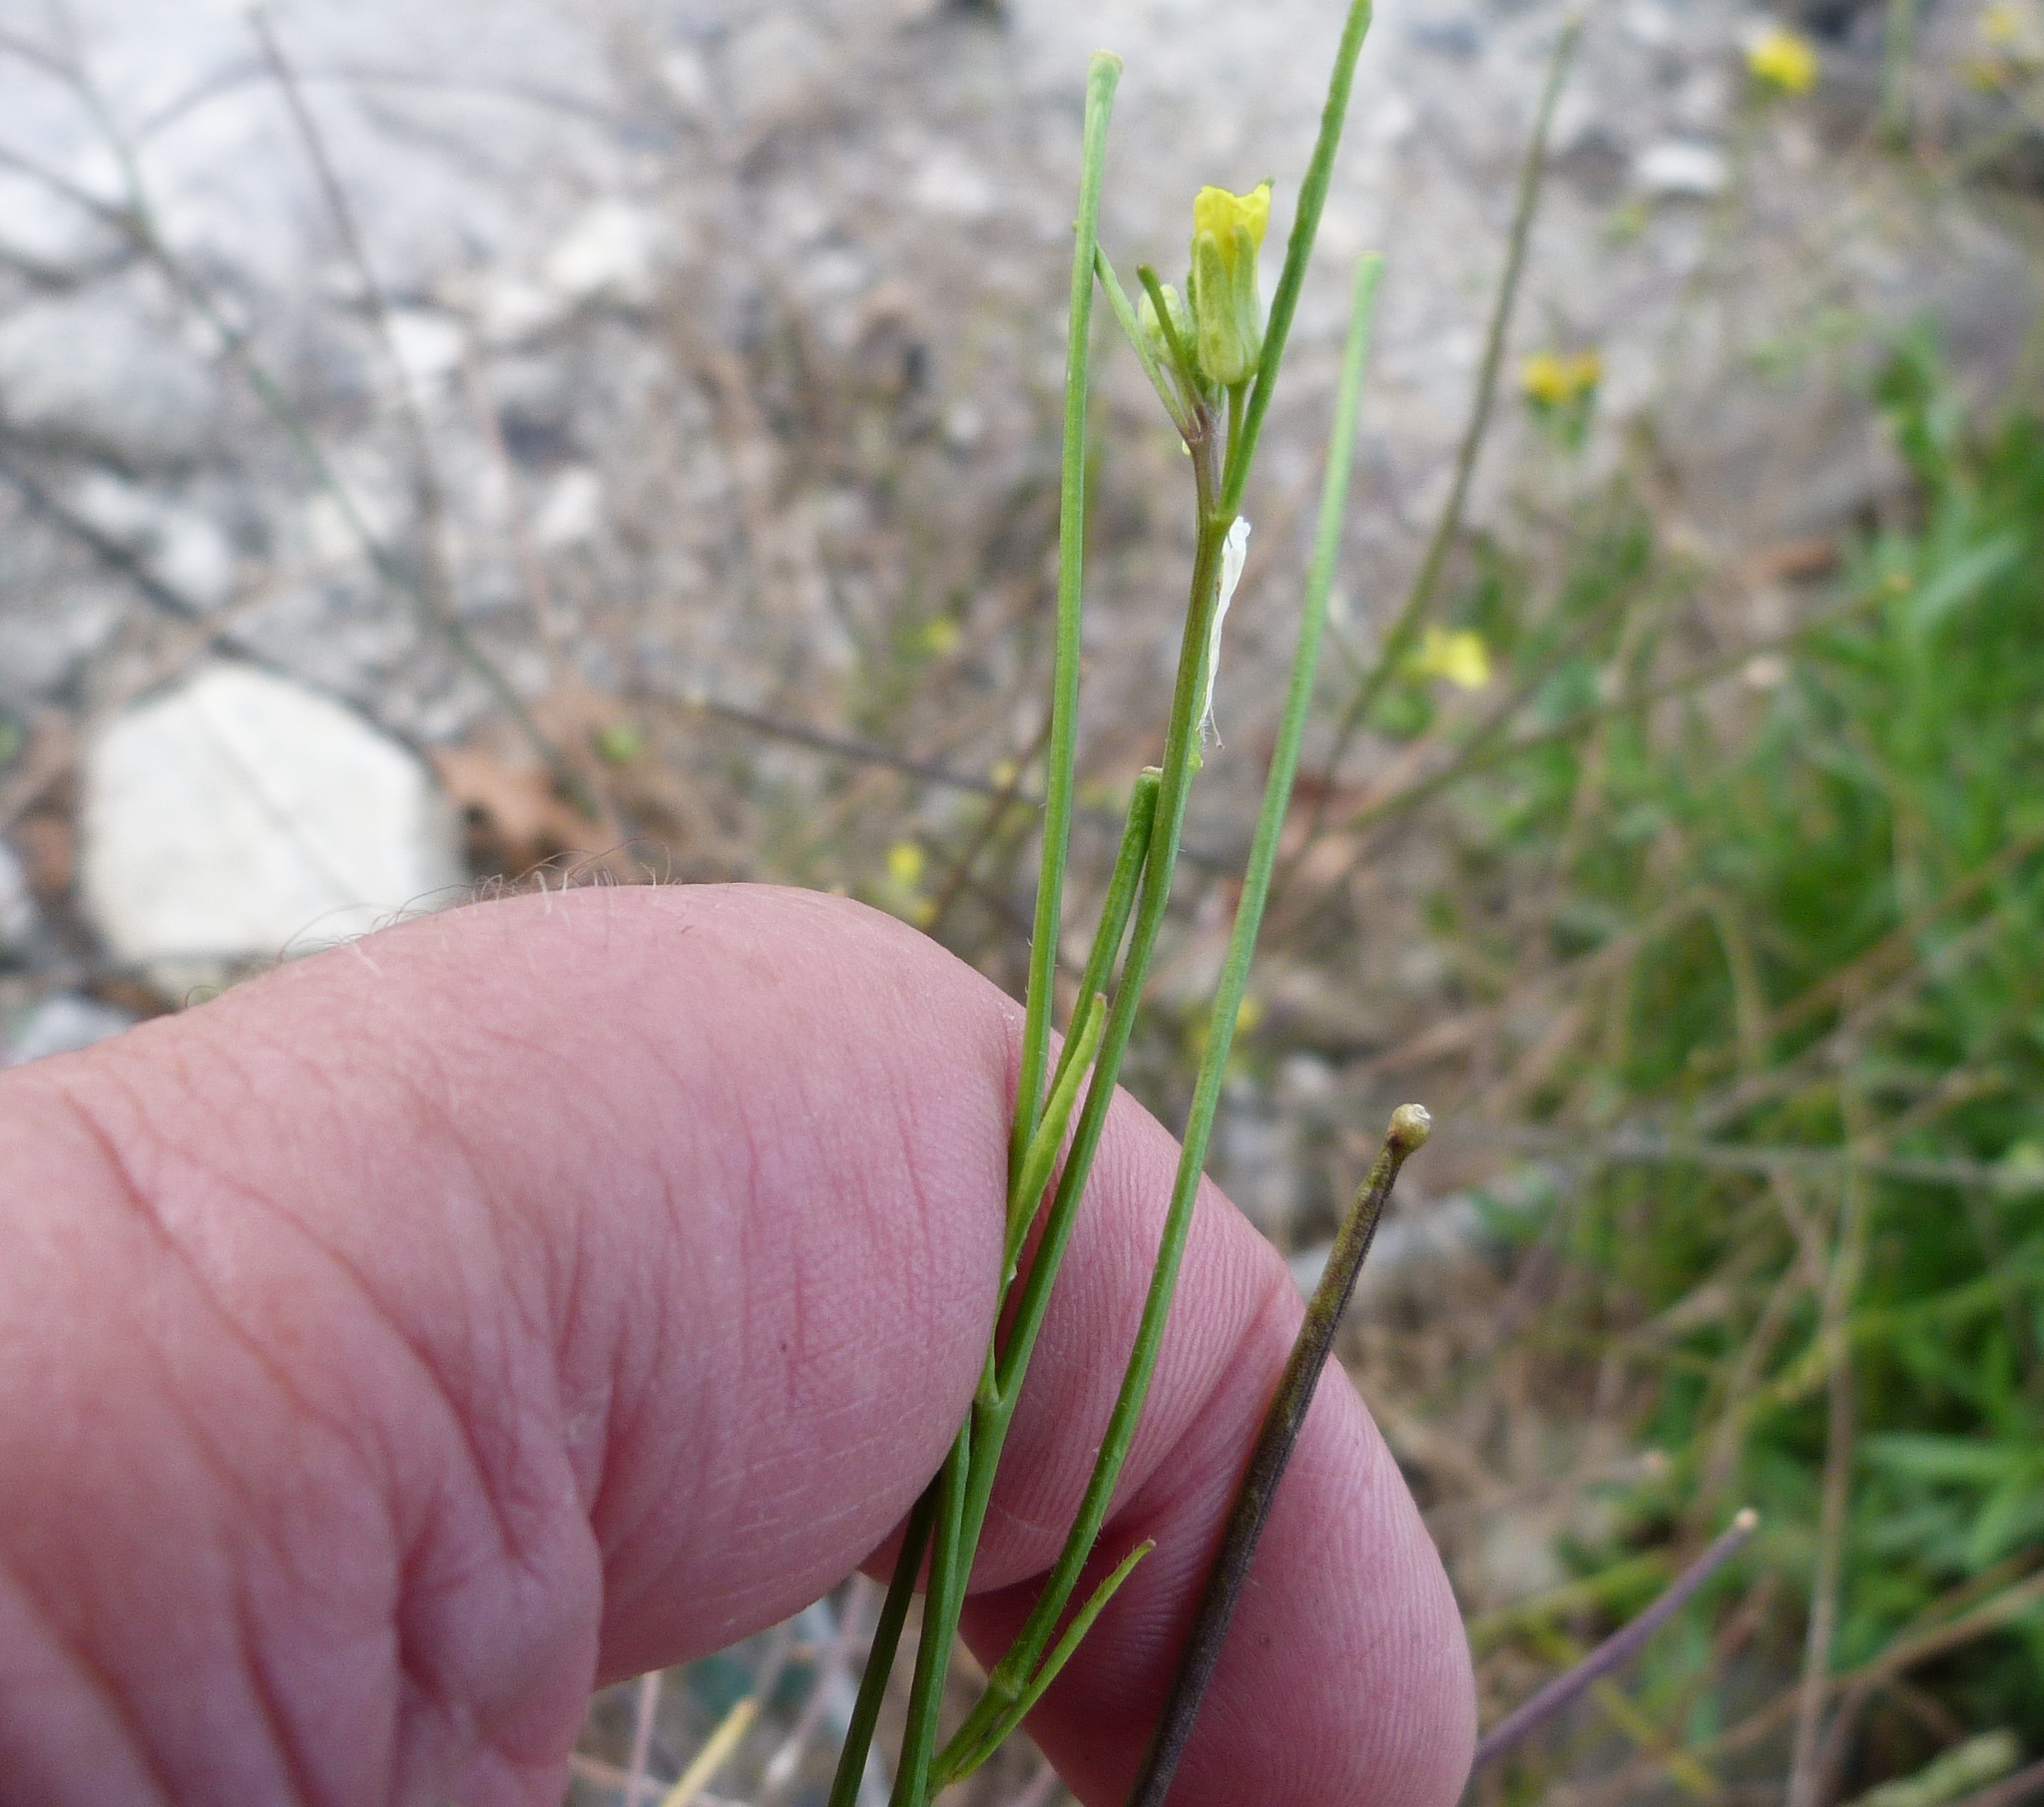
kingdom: Plantae
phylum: Tracheophyta
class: Magnoliopsida
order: Brassicales
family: Brassicaceae
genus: Sisymbrium
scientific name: Sisymbrium orientale
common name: Eastern rocket
